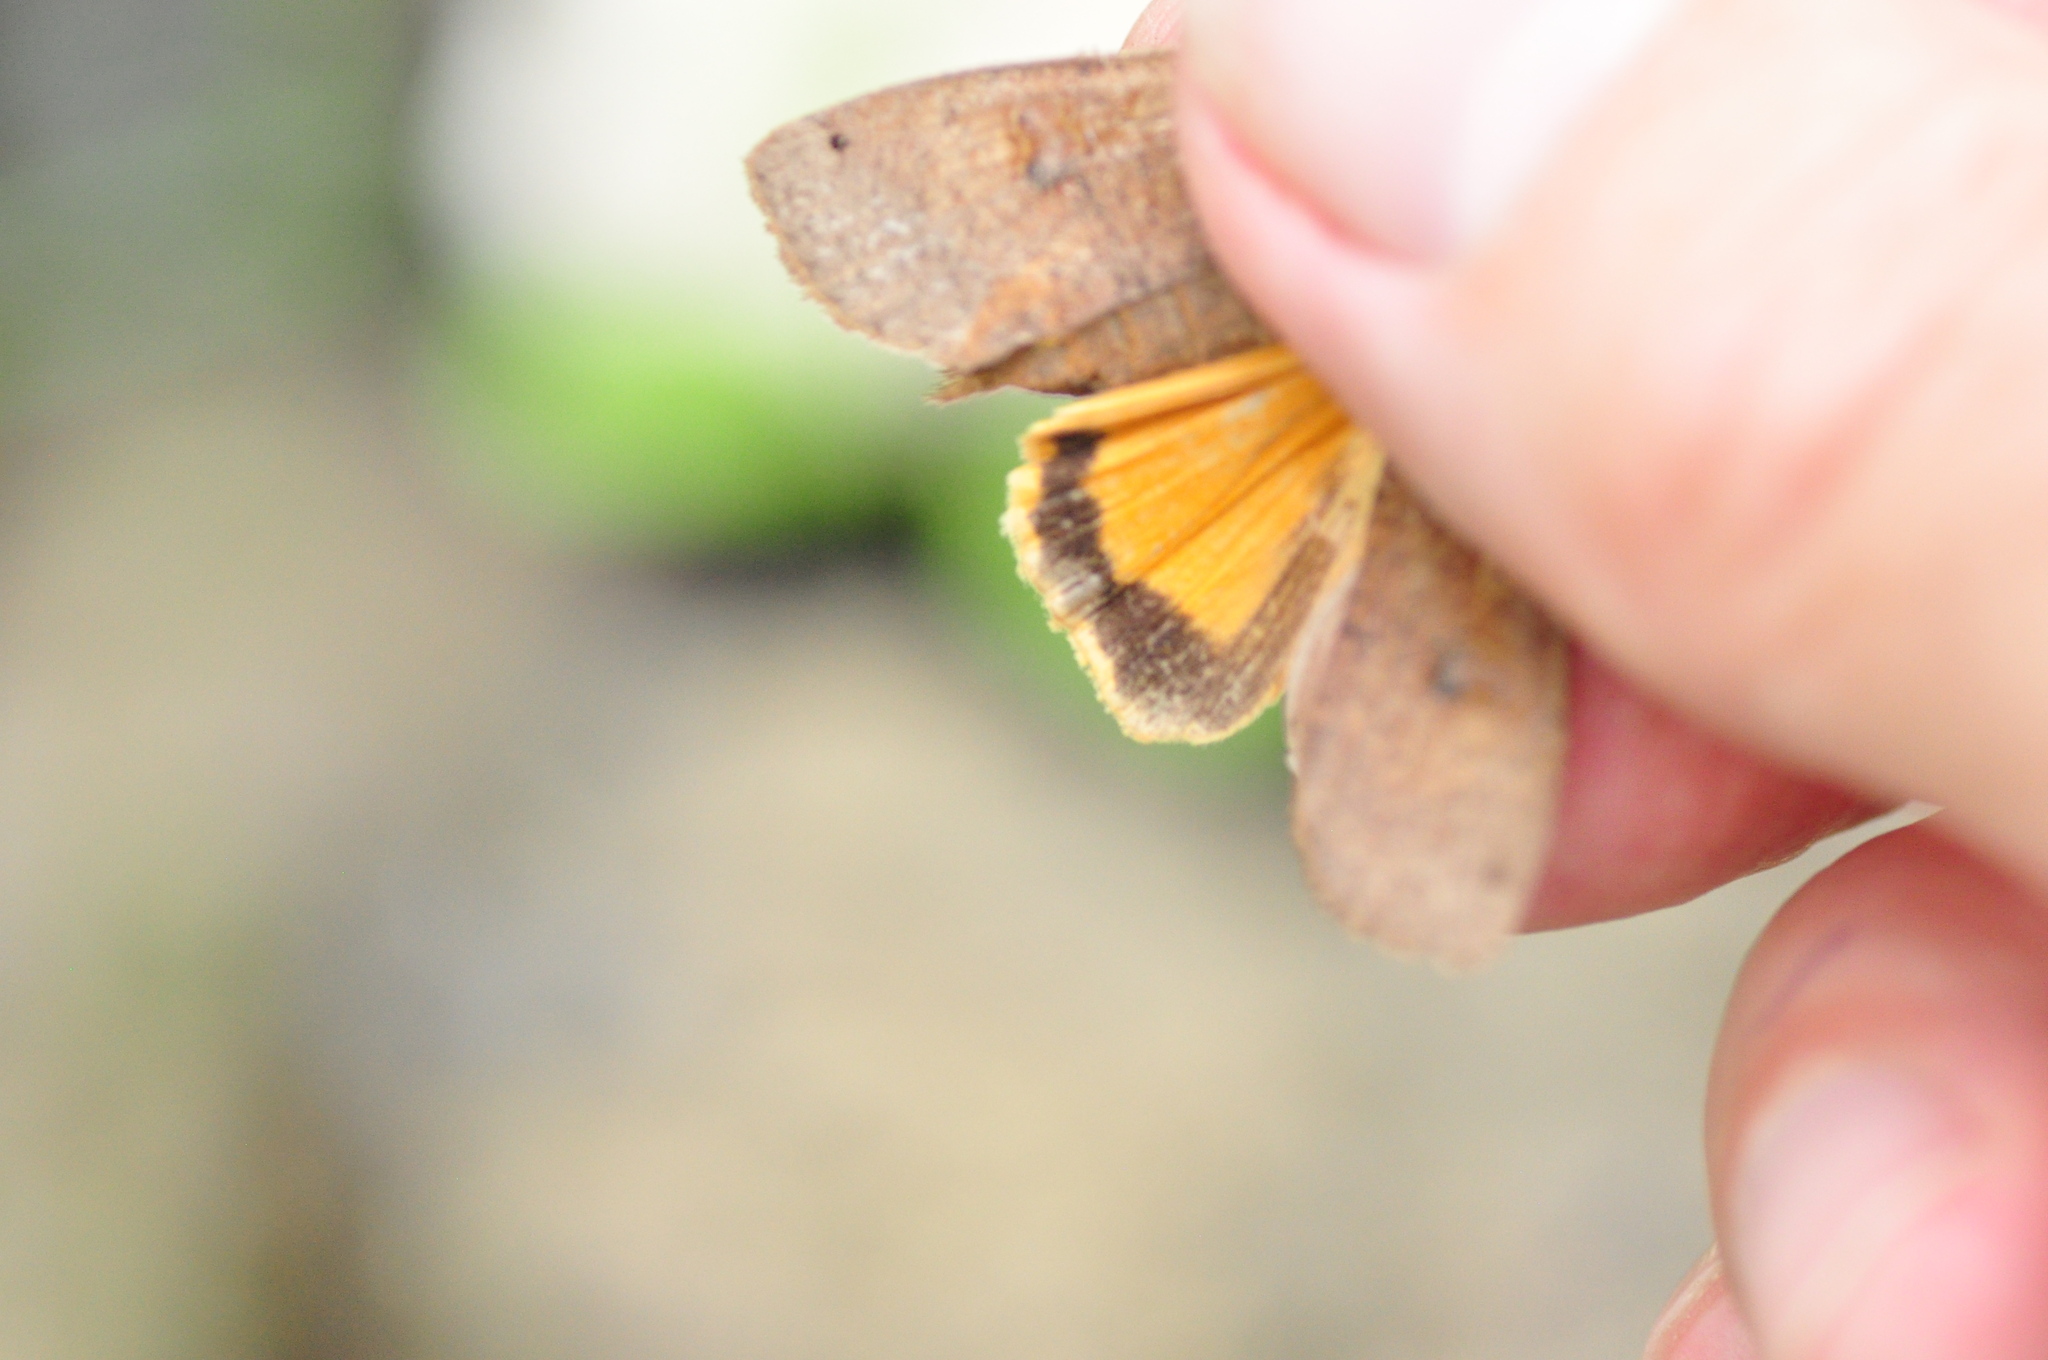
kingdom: Animalia
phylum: Arthropoda
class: Insecta
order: Lepidoptera
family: Noctuidae
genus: Noctua
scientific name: Noctua pronuba
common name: Large yellow underwing
